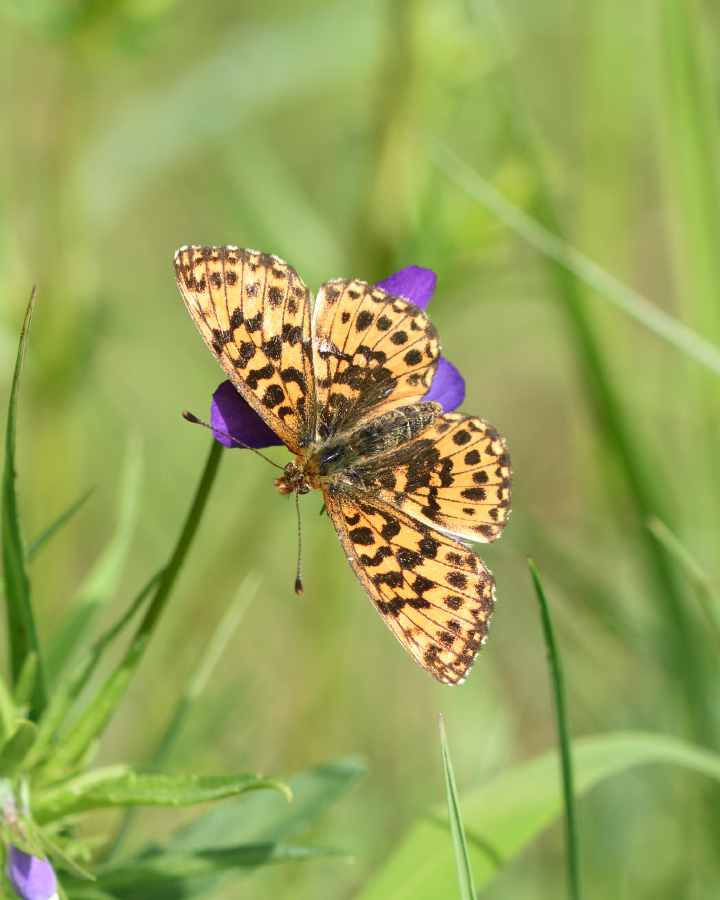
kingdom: Animalia
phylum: Arthropoda
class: Insecta
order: Lepidoptera
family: Nymphalidae
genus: Boloria
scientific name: Boloria dia
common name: Weaver's fritillary
